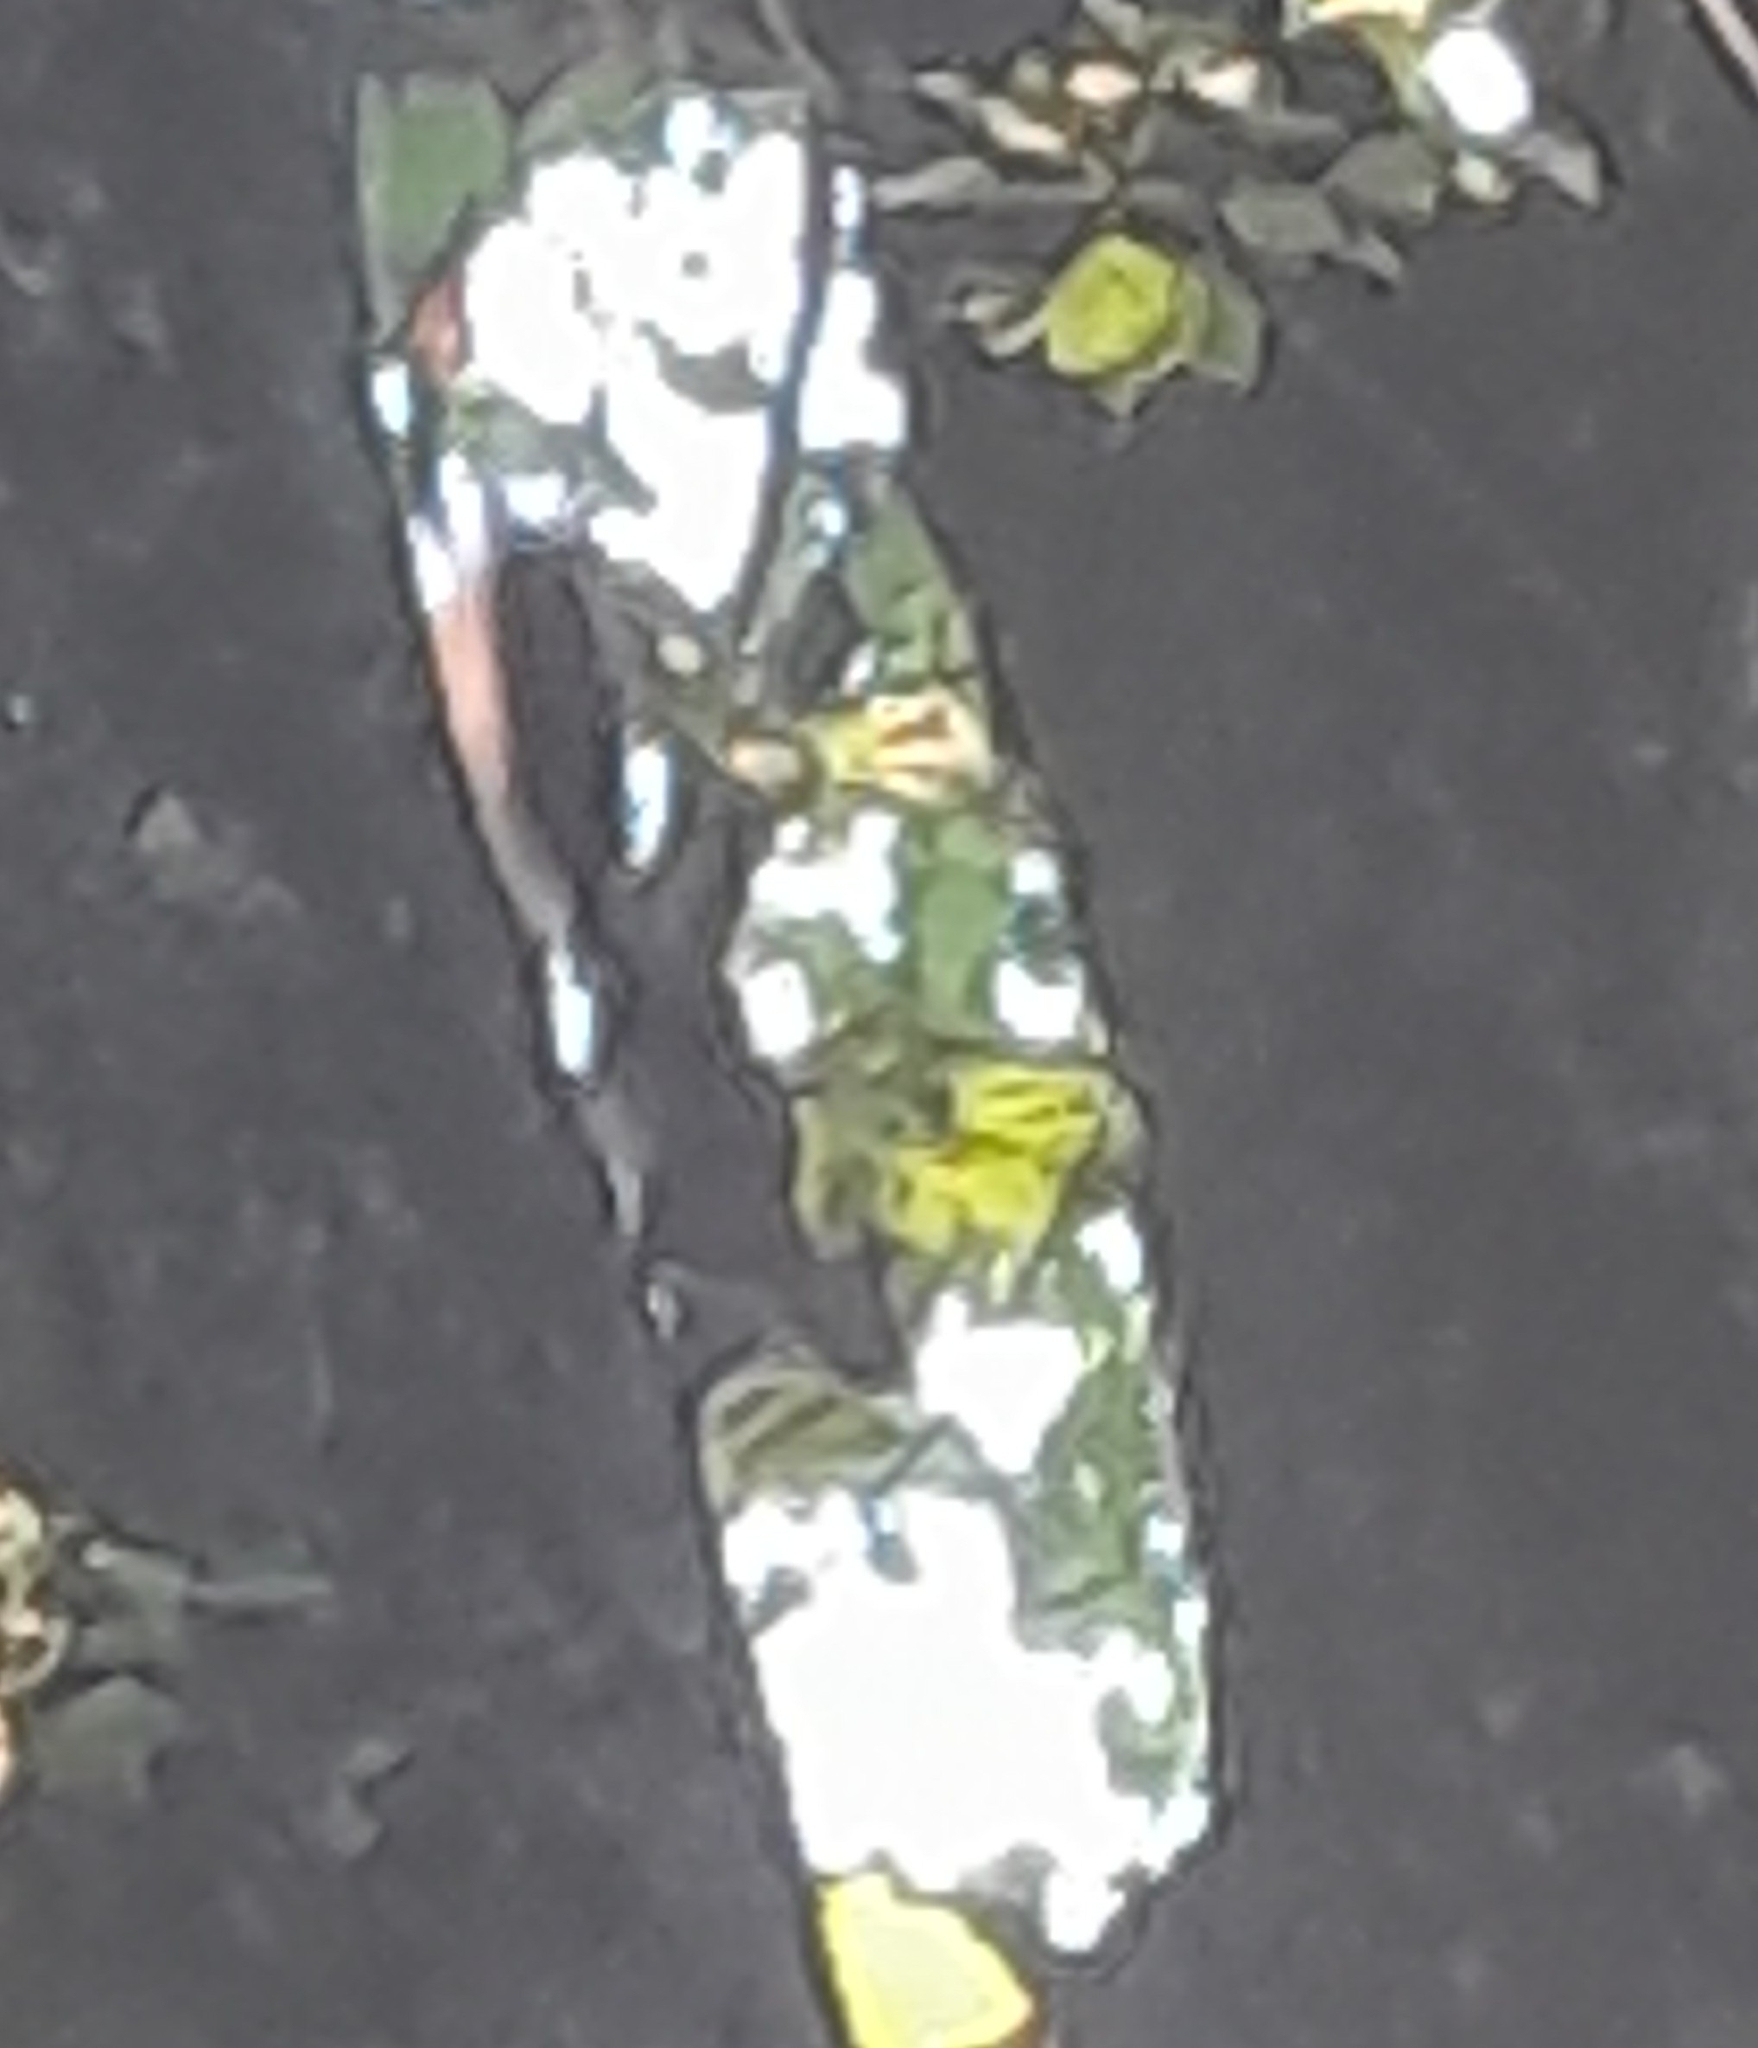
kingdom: Animalia
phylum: Chordata
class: Mammalia
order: Rodentia
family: Sciuridae
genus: Sciurus
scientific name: Sciurus vulgaris
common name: Eurasian red squirrel
